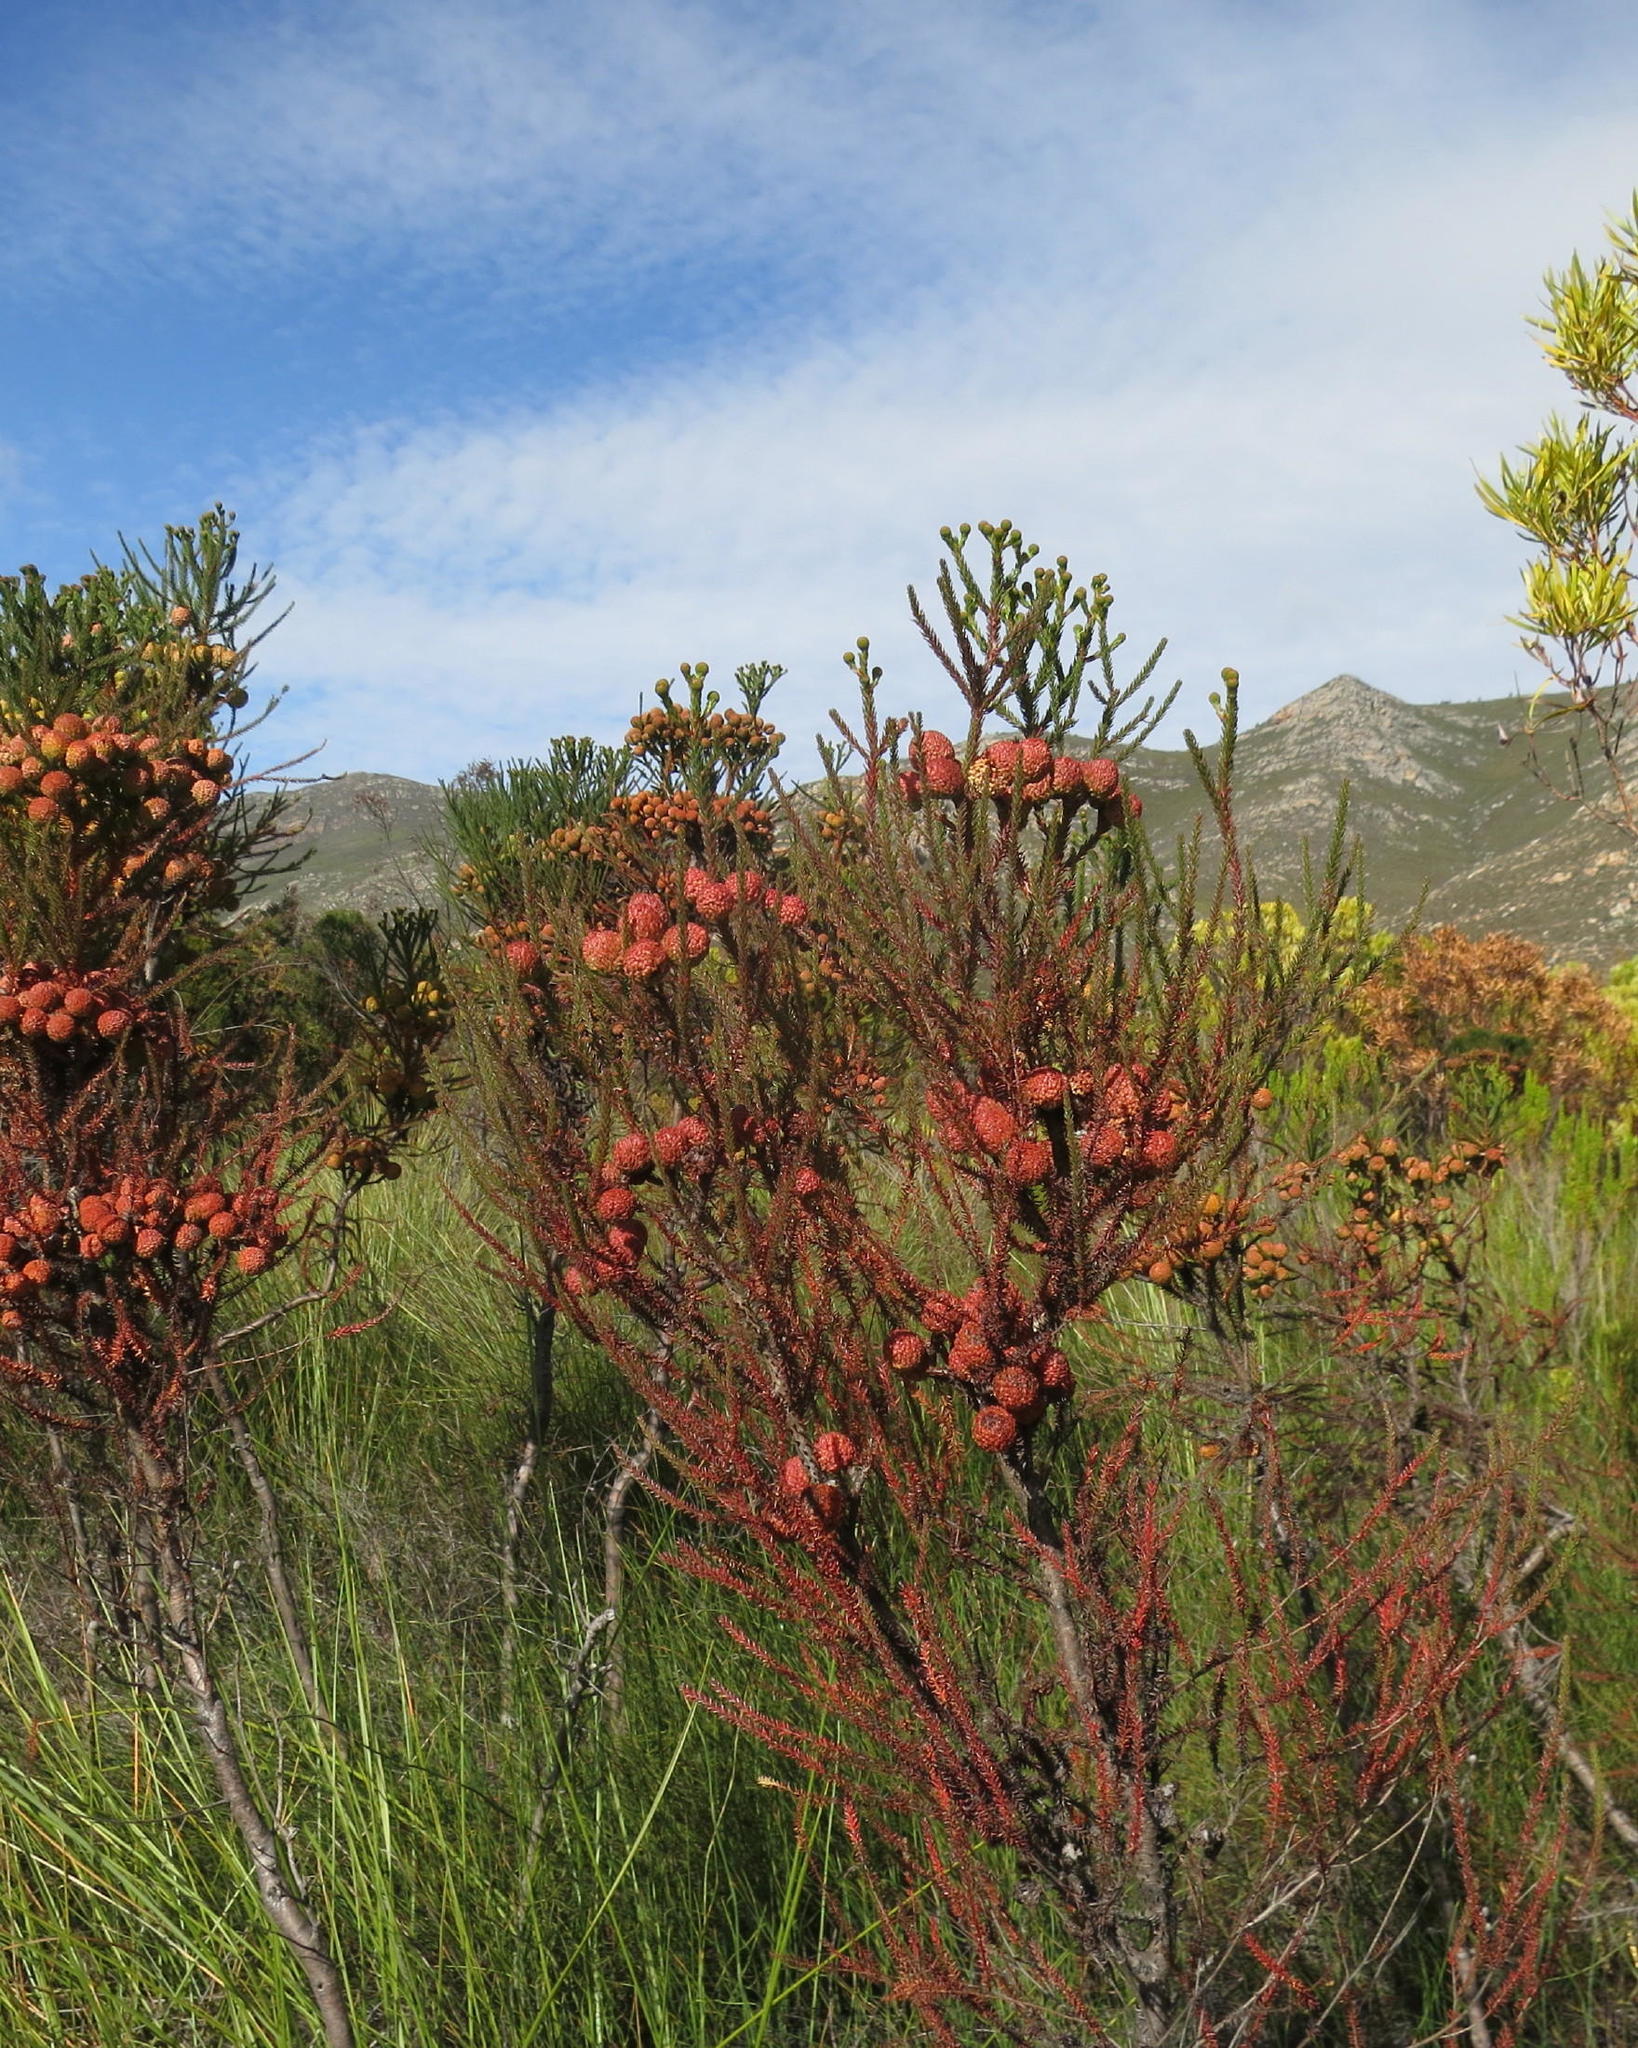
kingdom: Plantae
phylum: Tracheophyta
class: Magnoliopsida
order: Bruniales
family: Bruniaceae
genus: Berzelia
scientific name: Berzelia intermedia
